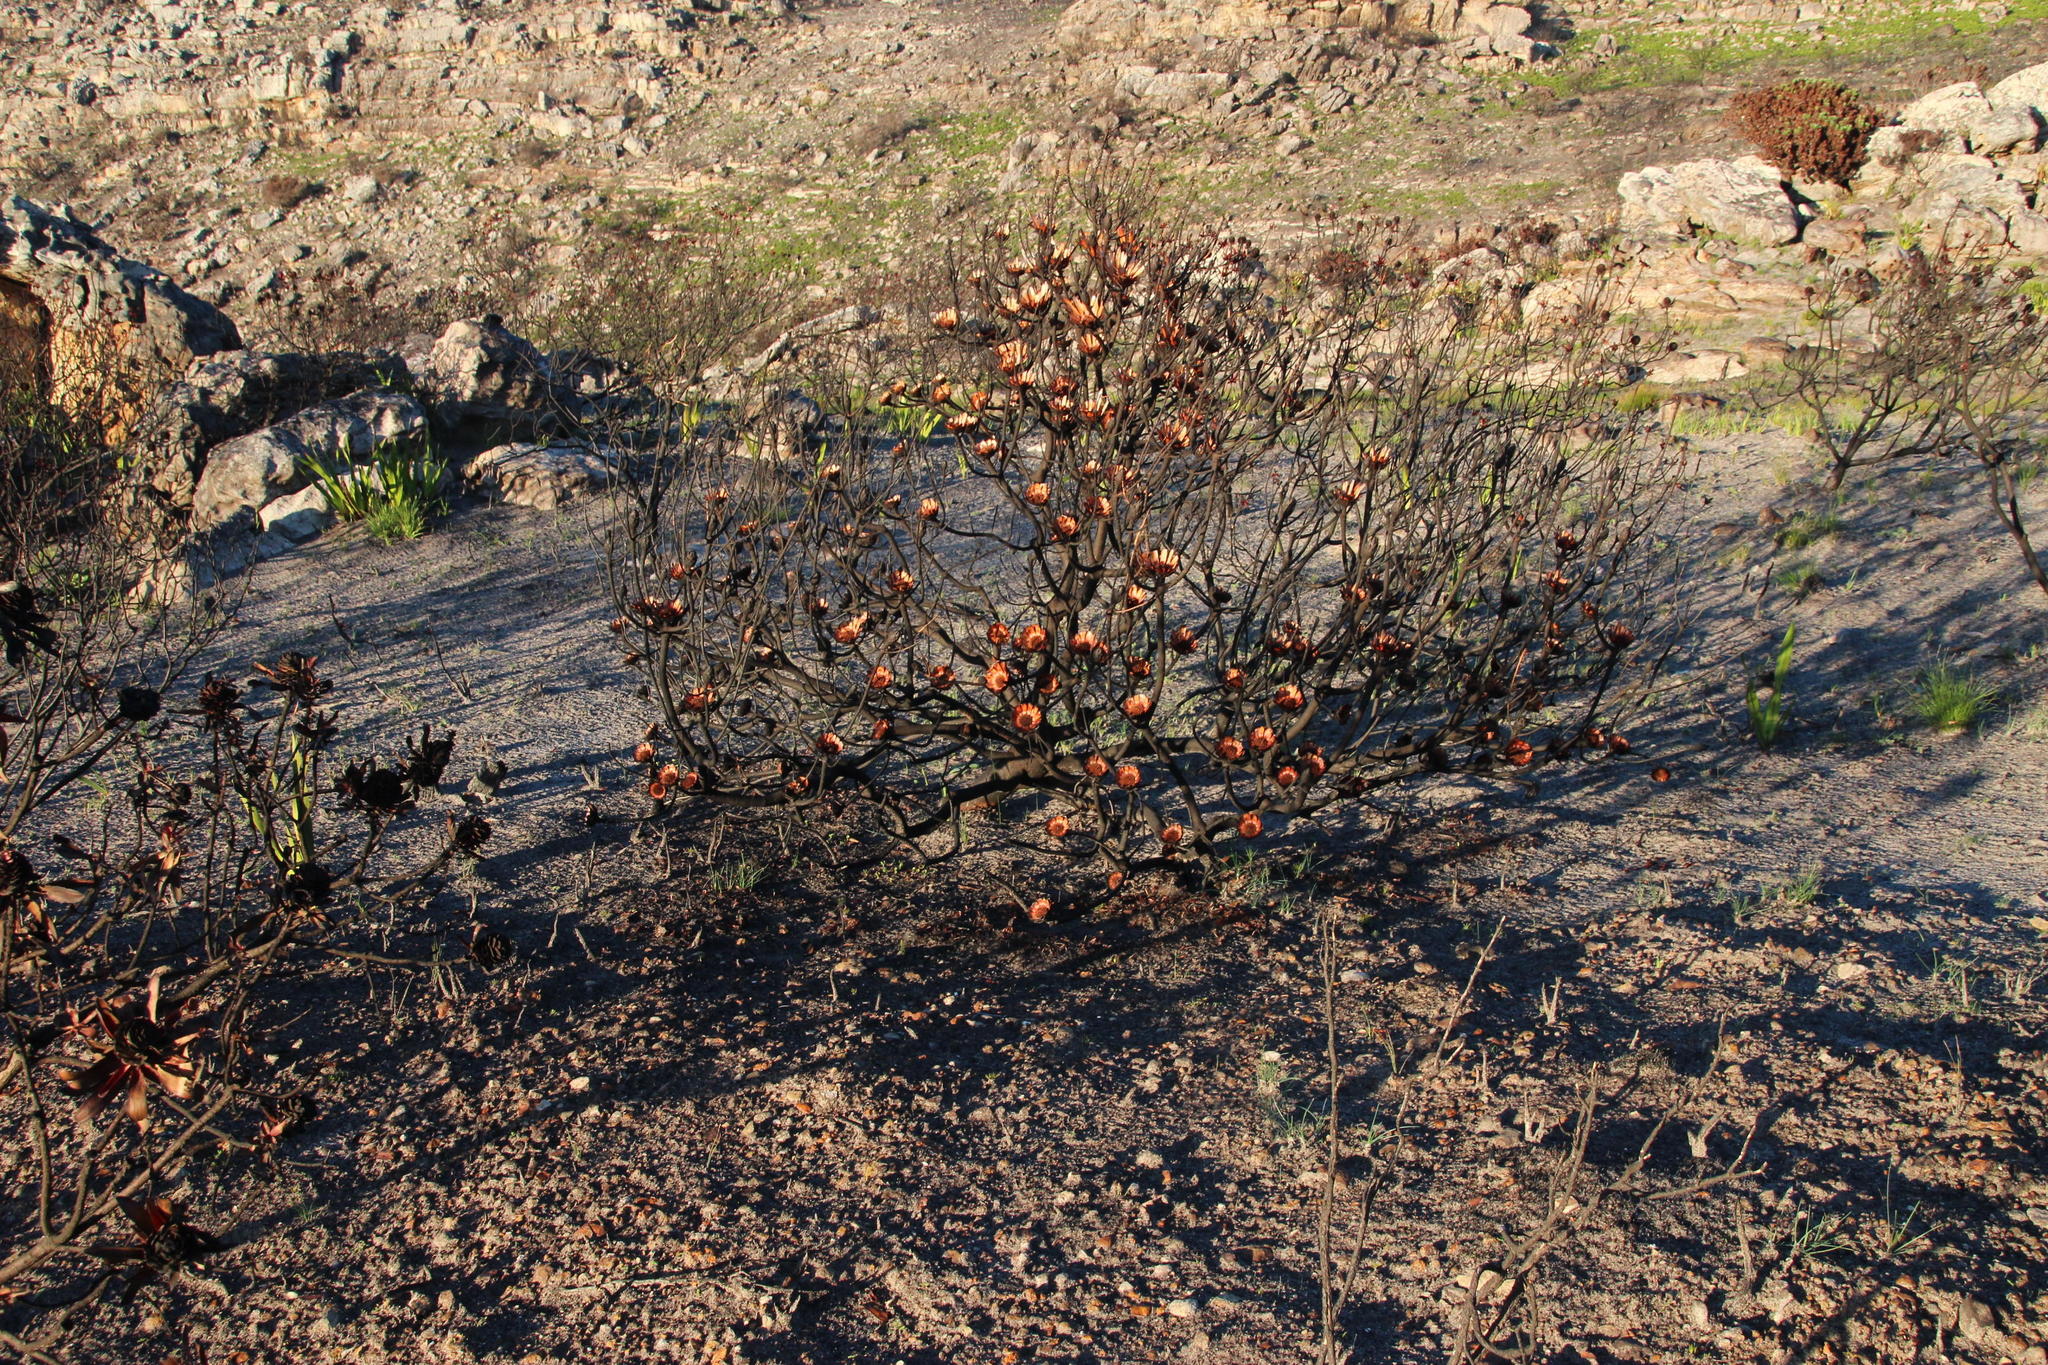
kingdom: Plantae
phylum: Tracheophyta
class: Magnoliopsida
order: Proteales
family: Proteaceae
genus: Protea
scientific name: Protea repens
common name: Sugarbush
